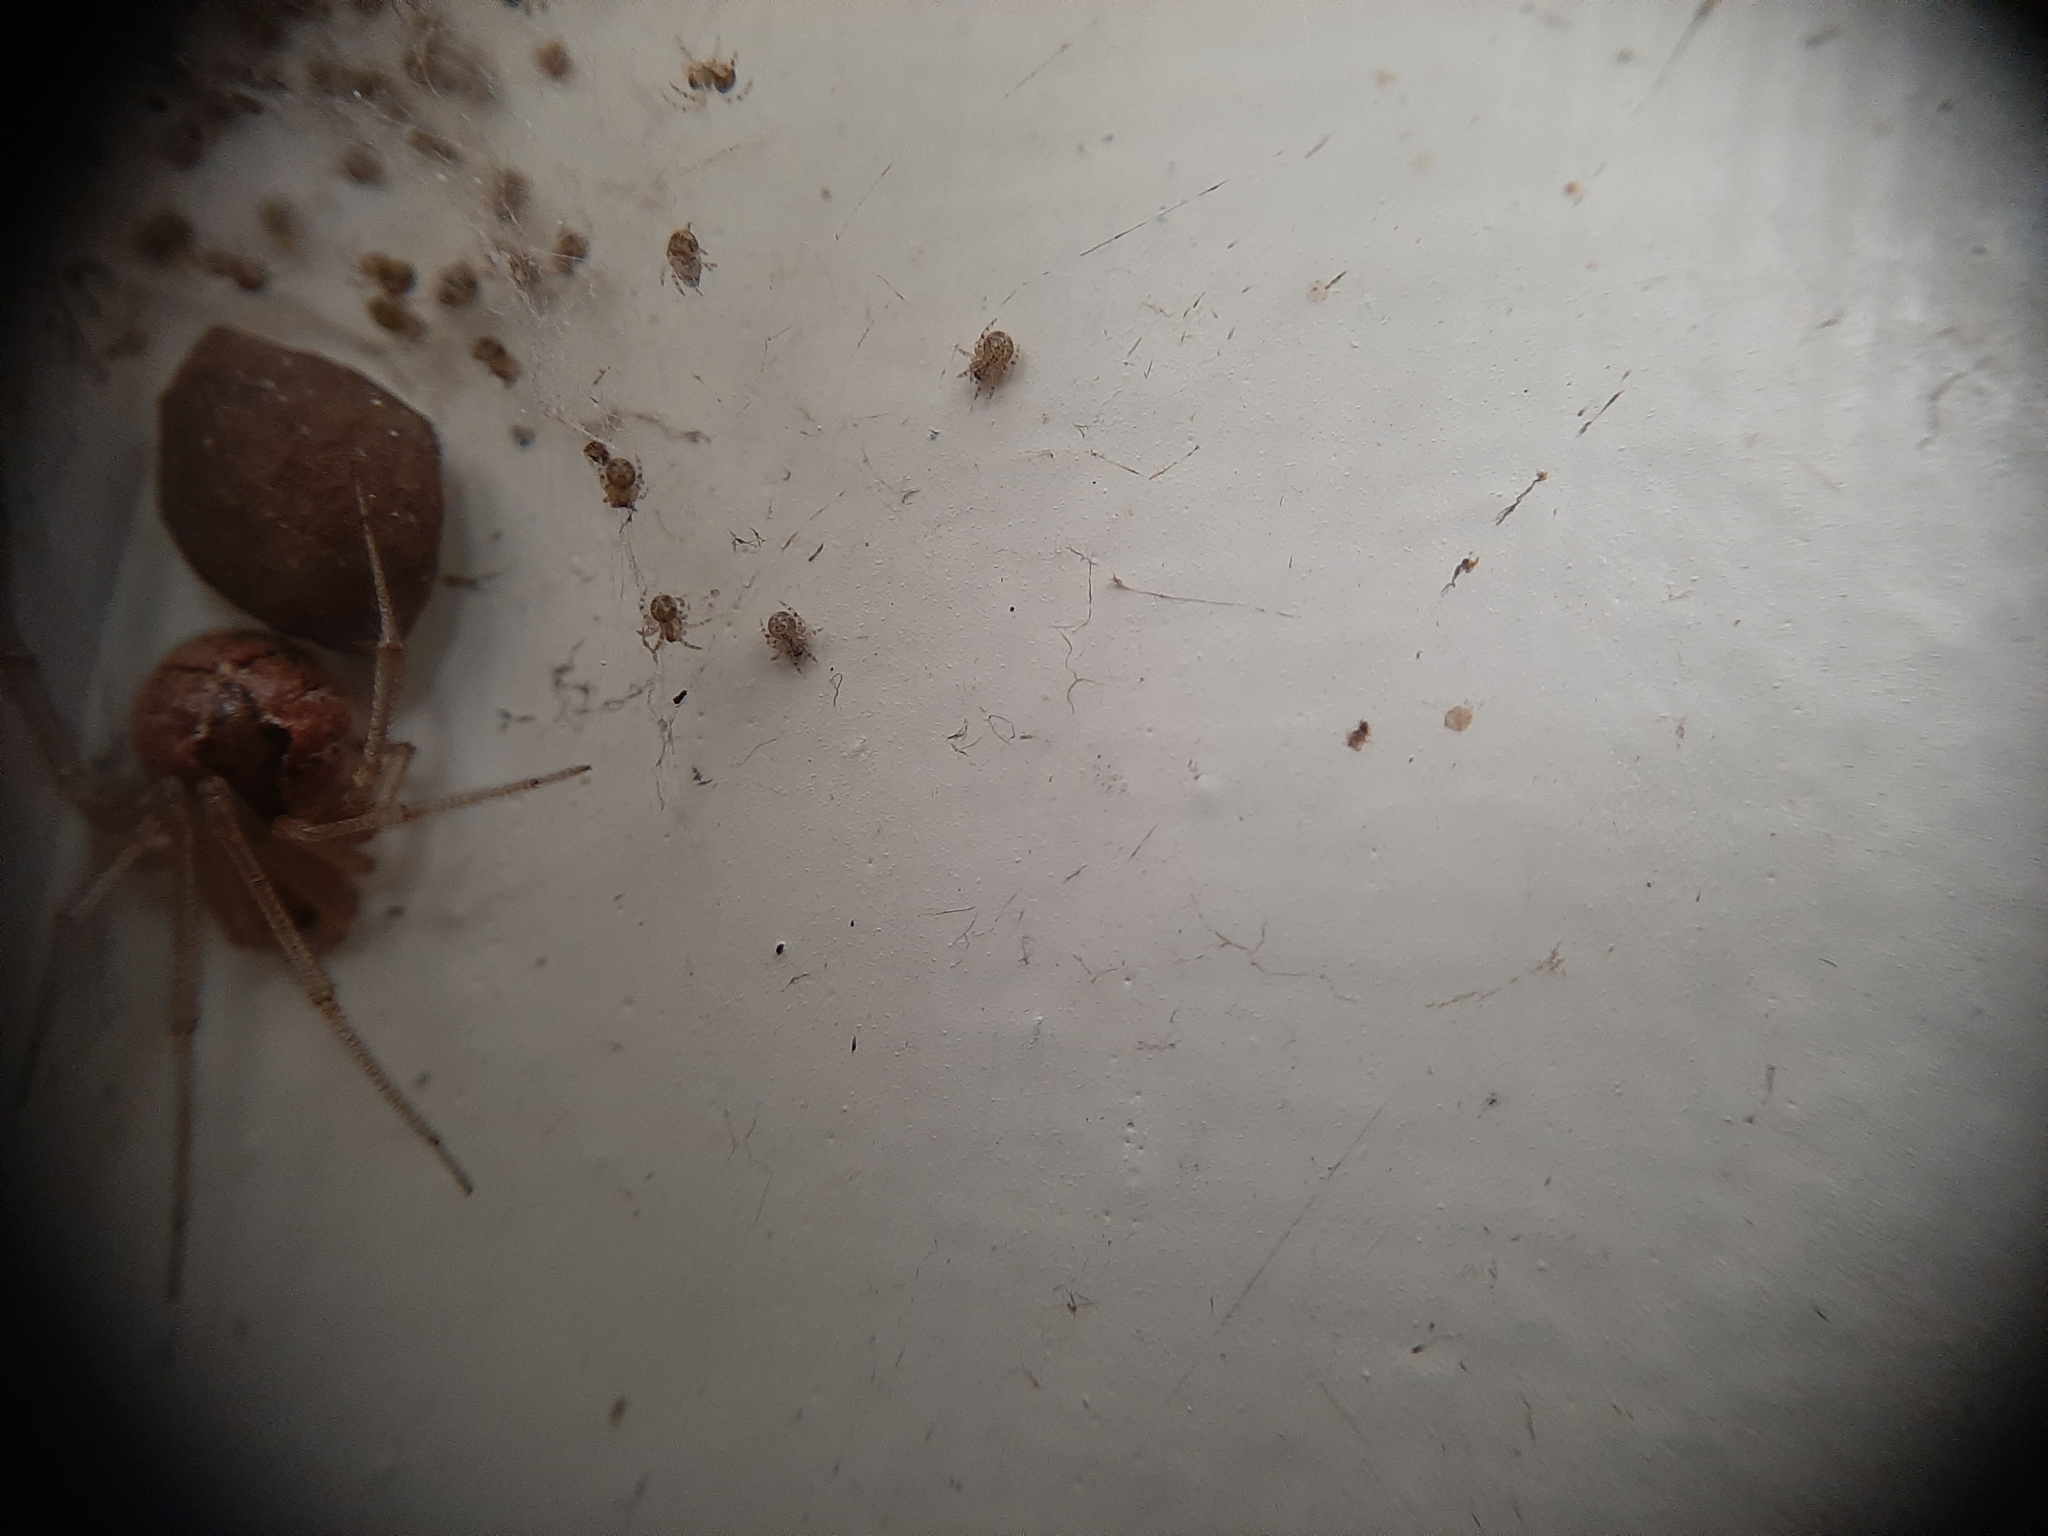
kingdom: Animalia
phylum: Arthropoda
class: Arachnida
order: Araneae
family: Theridiidae
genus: Cryptachaea
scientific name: Cryptachaea veruculata
